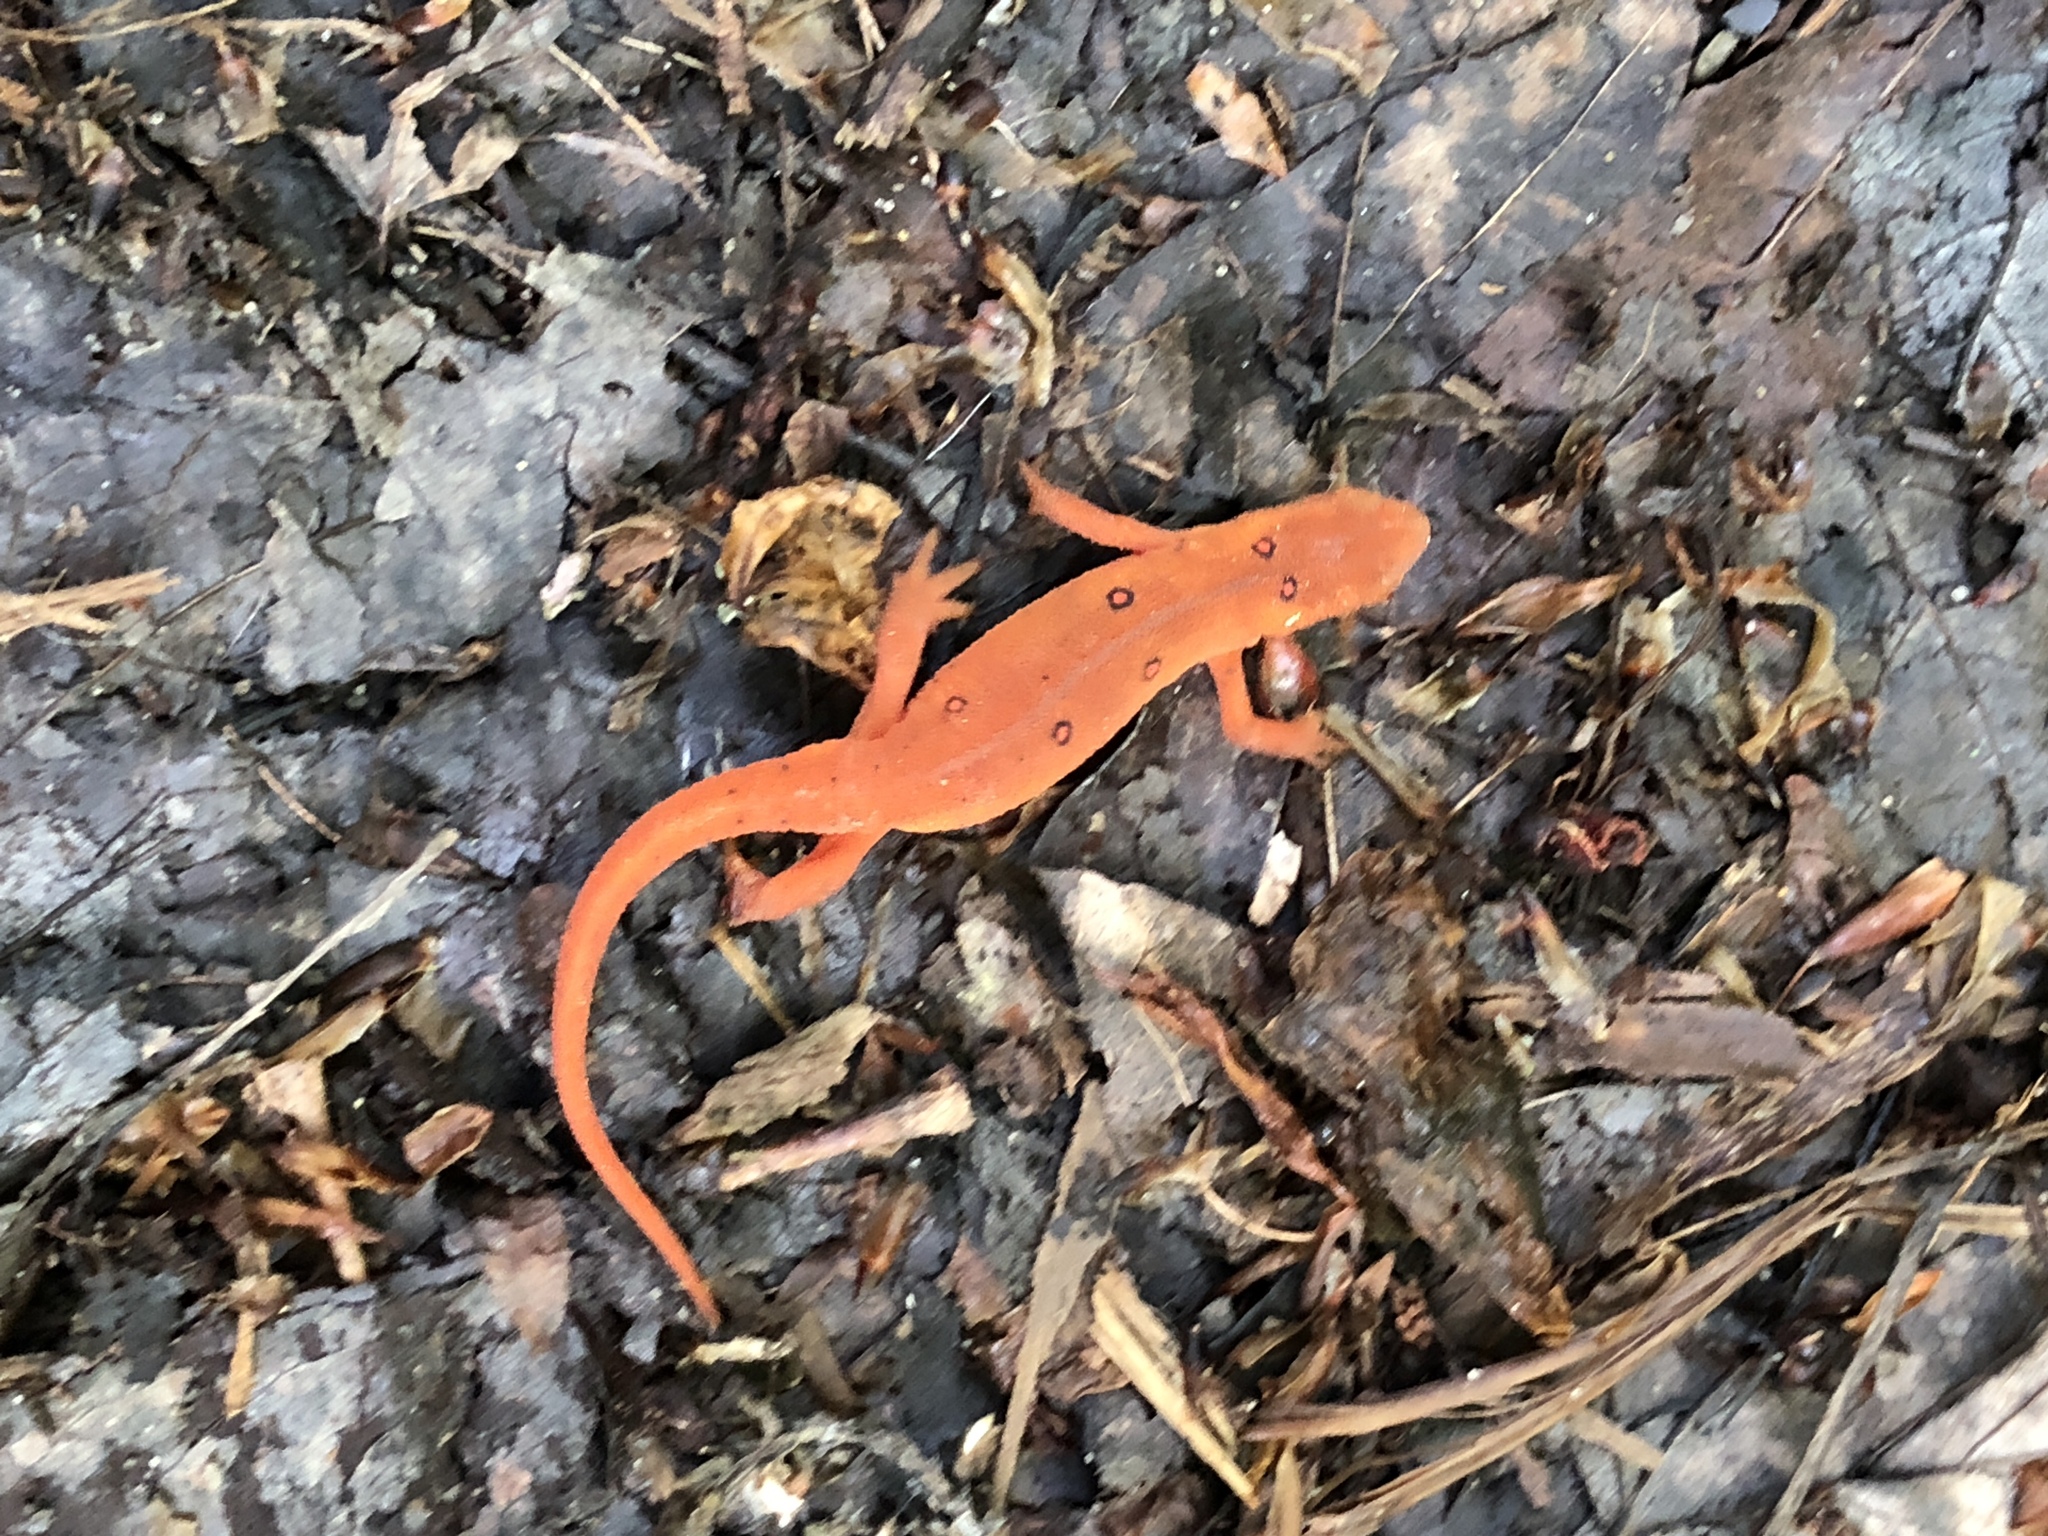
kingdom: Animalia
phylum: Chordata
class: Amphibia
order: Caudata
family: Salamandridae
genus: Notophthalmus
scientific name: Notophthalmus viridescens
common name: Eastern newt
